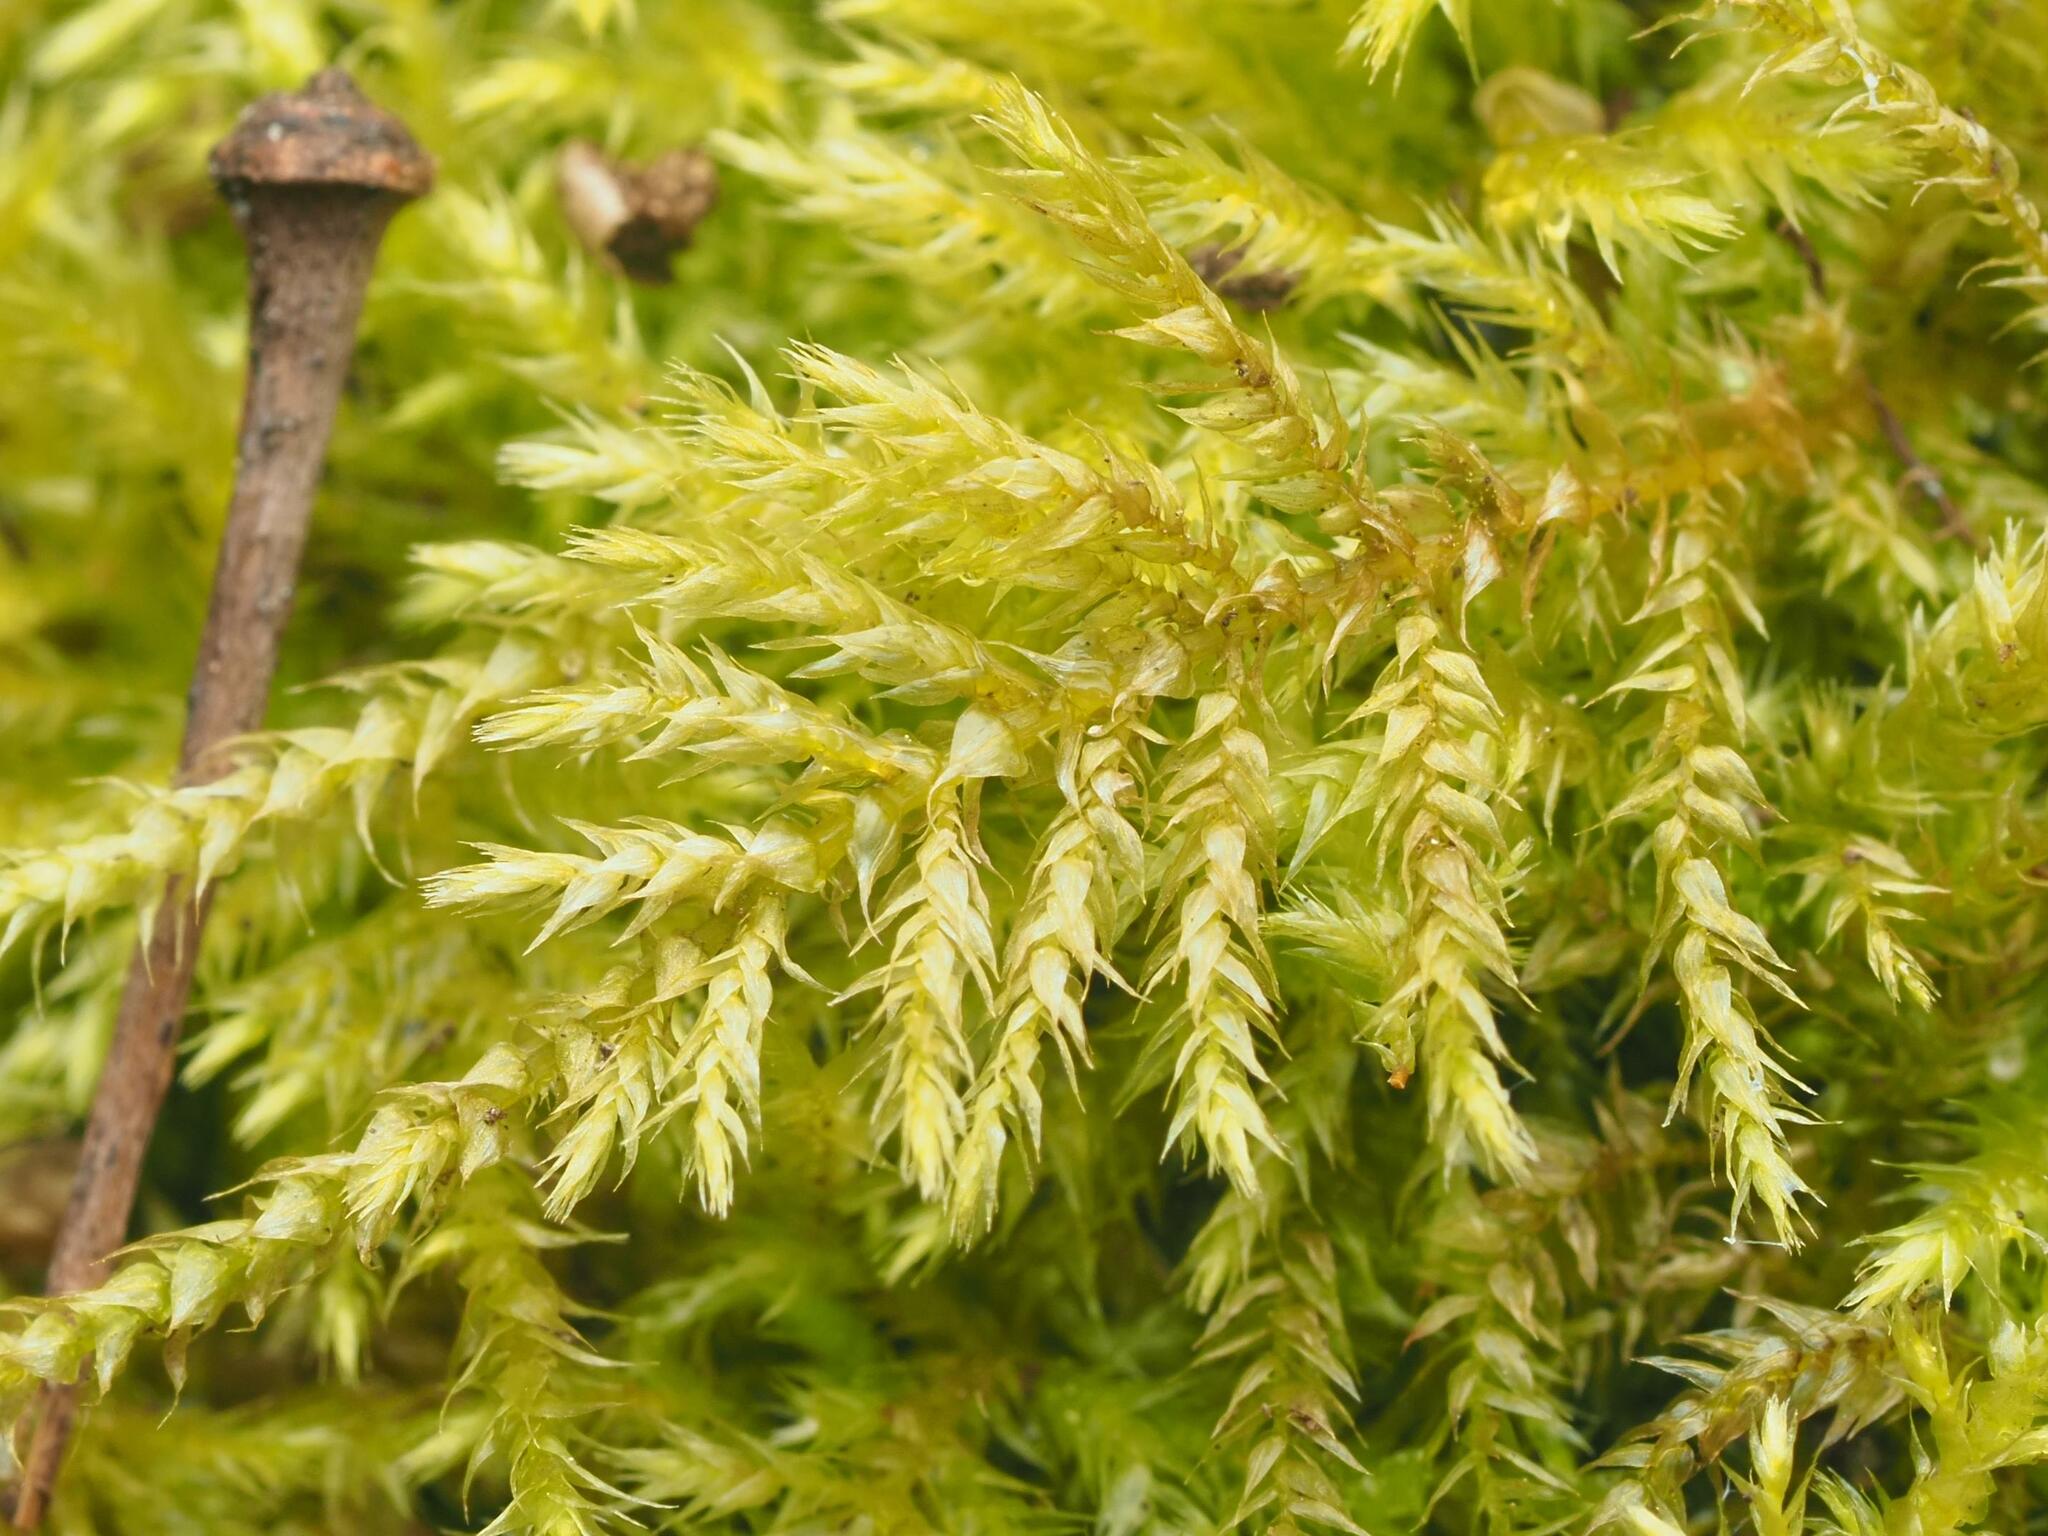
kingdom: Plantae
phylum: Bryophyta
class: Bryopsida
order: Hypnales
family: Brachytheciaceae
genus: Kindbergia
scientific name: Kindbergia praelonga
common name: Slender beaked moss
